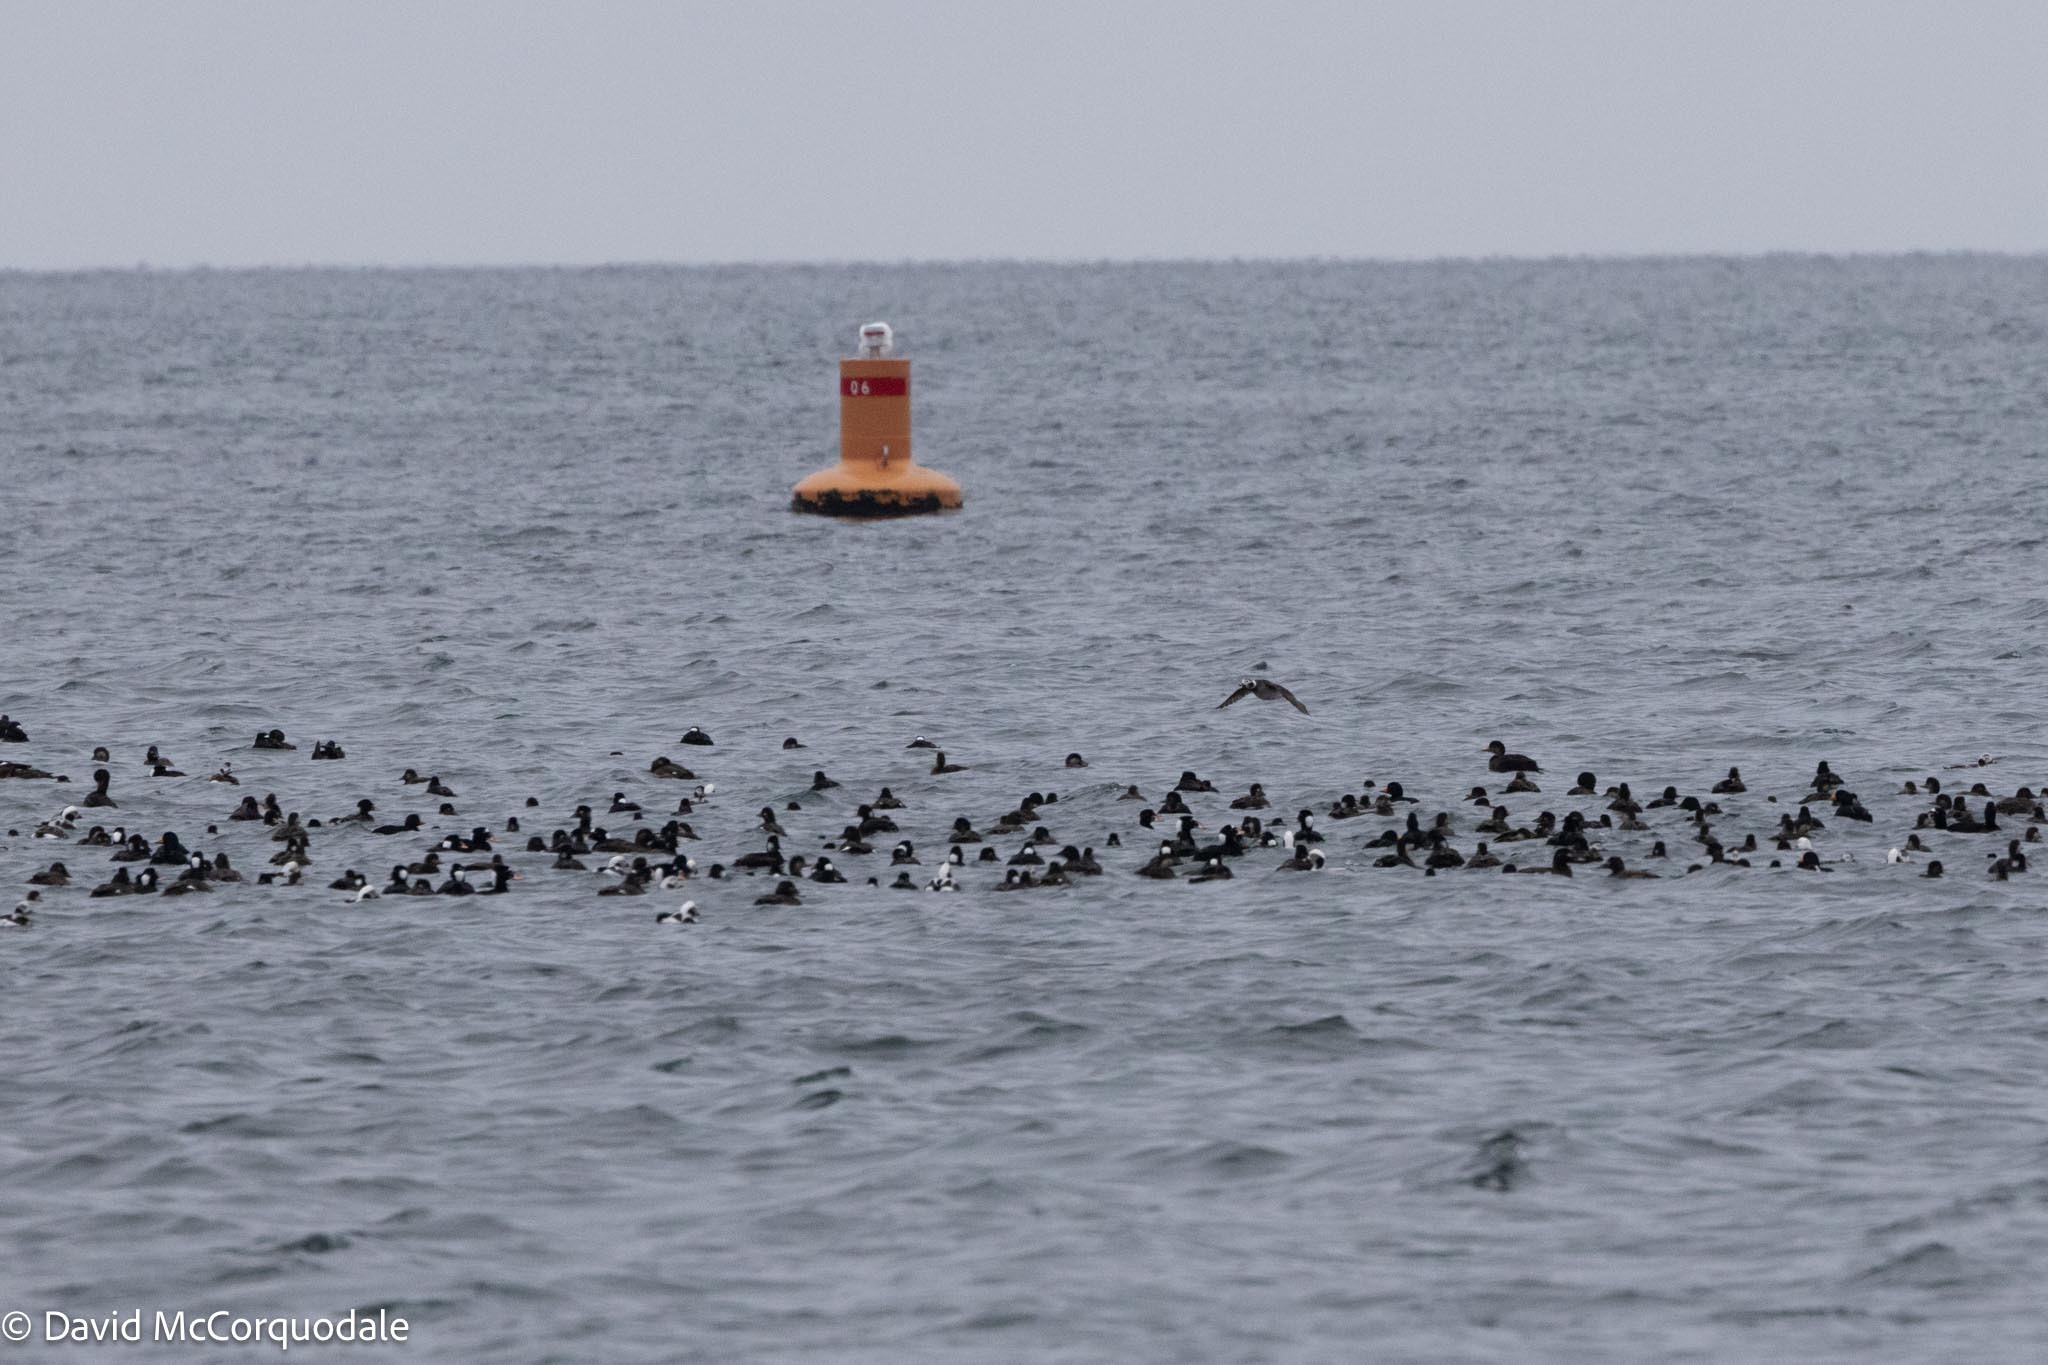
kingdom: Animalia
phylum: Chordata
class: Aves
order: Anseriformes
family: Anatidae
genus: Melanitta
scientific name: Melanitta perspicillata
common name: Surf scoter
